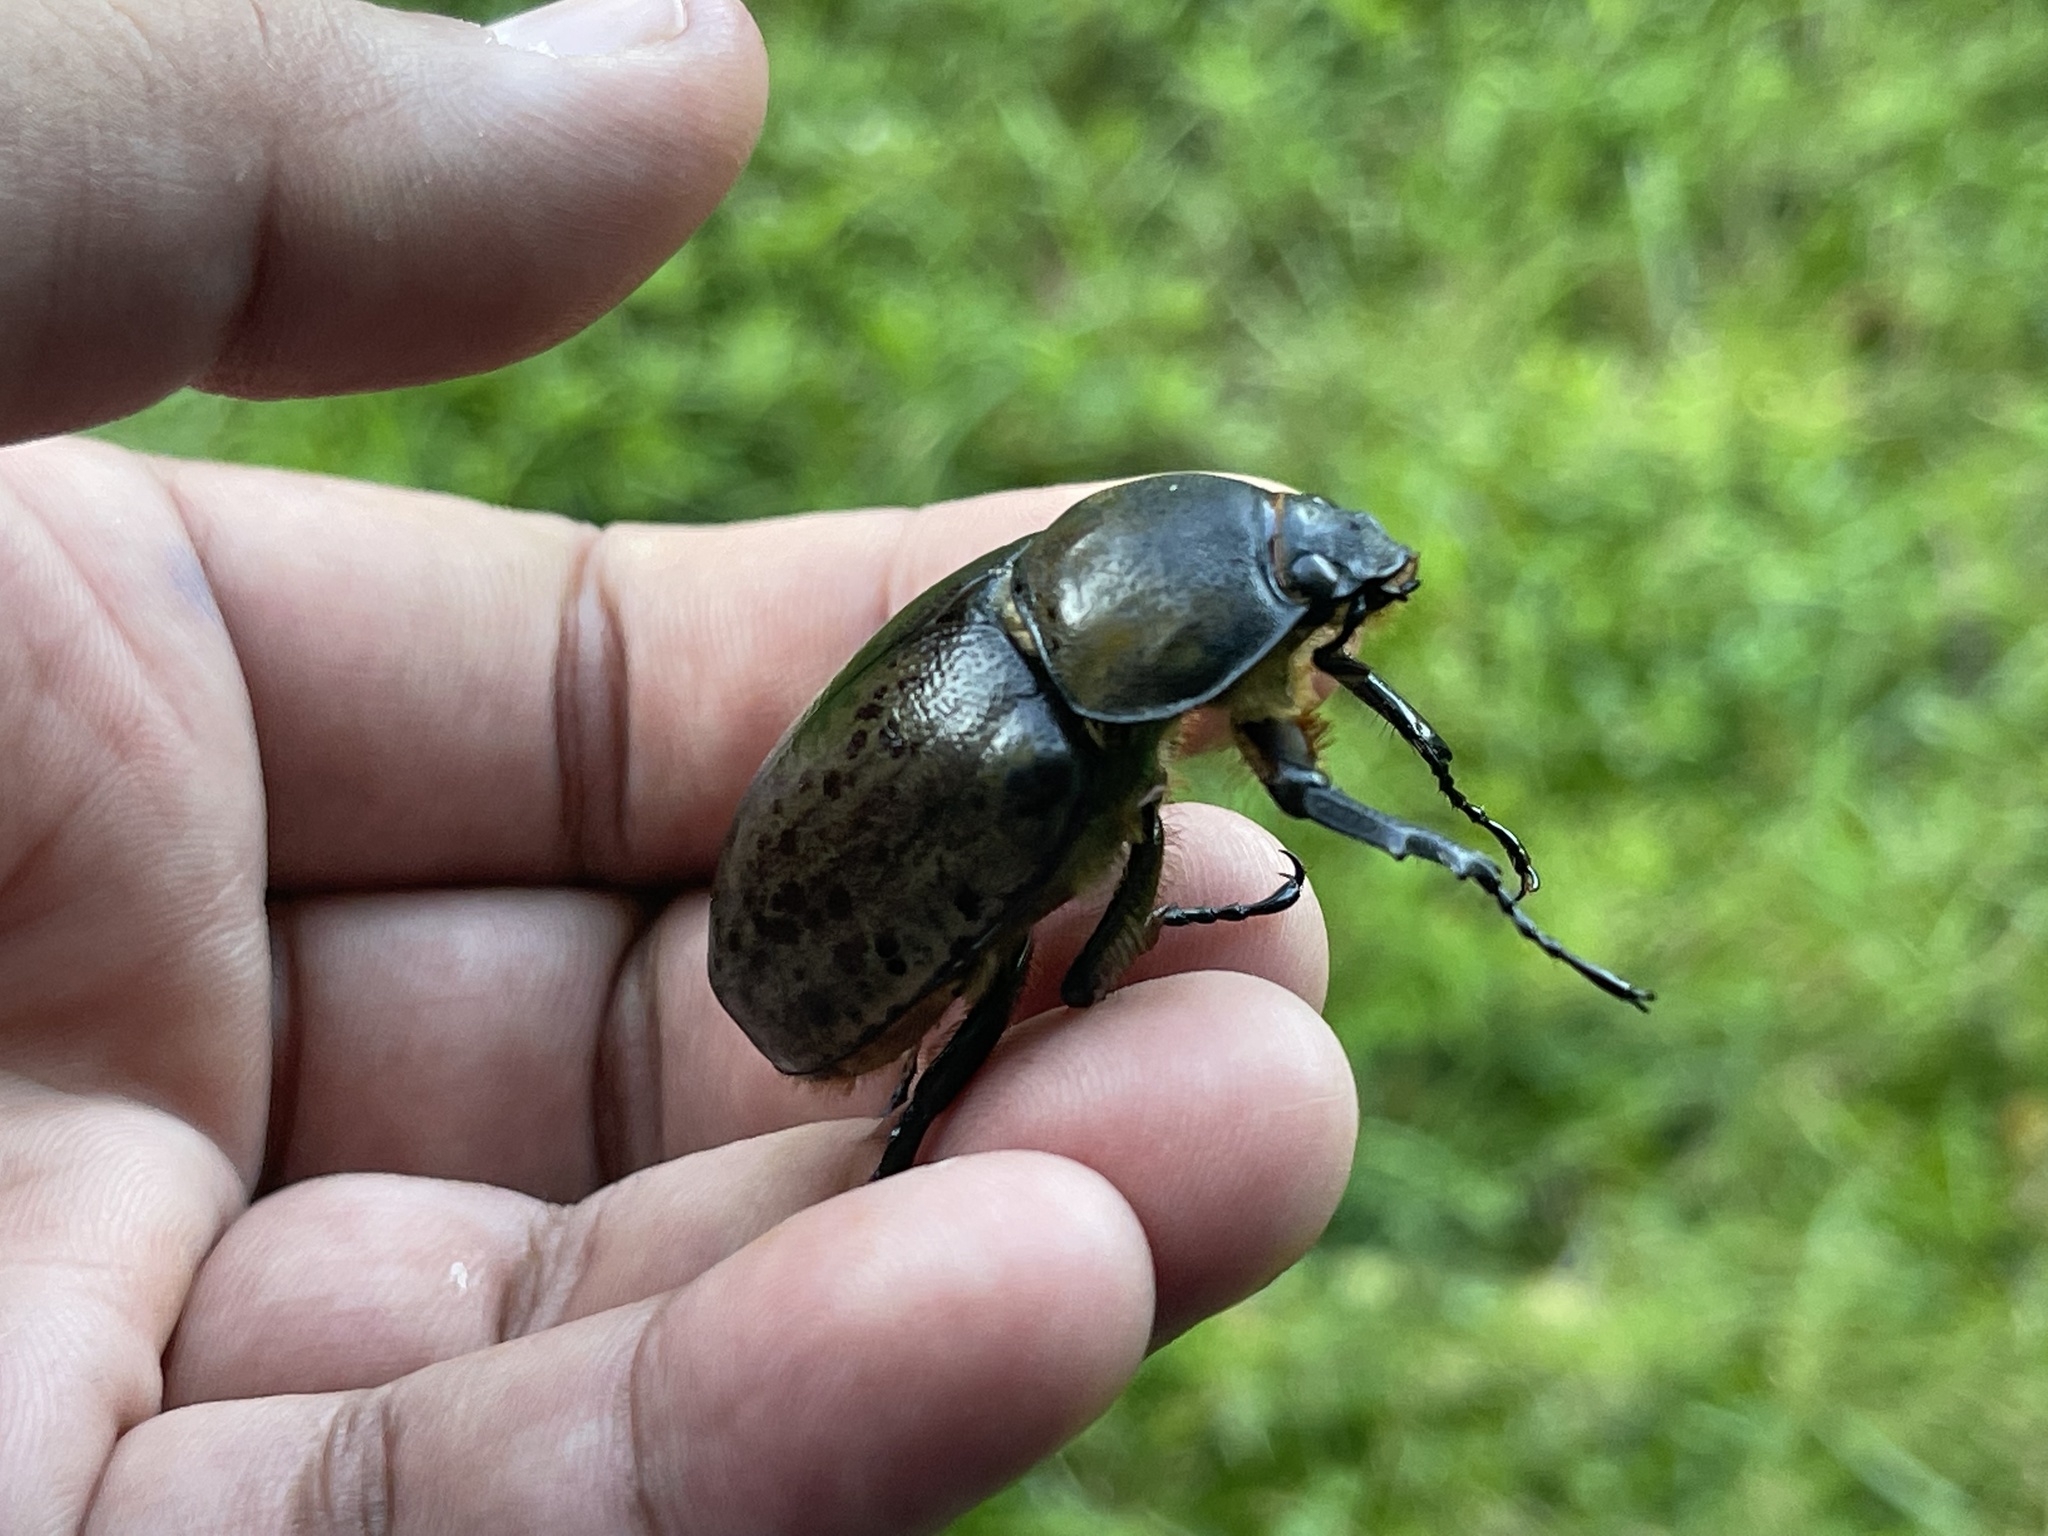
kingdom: Animalia
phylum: Arthropoda
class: Insecta
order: Coleoptera
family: Scarabaeidae
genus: Dynastes
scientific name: Dynastes tityus
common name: Eastern hercules beetle
